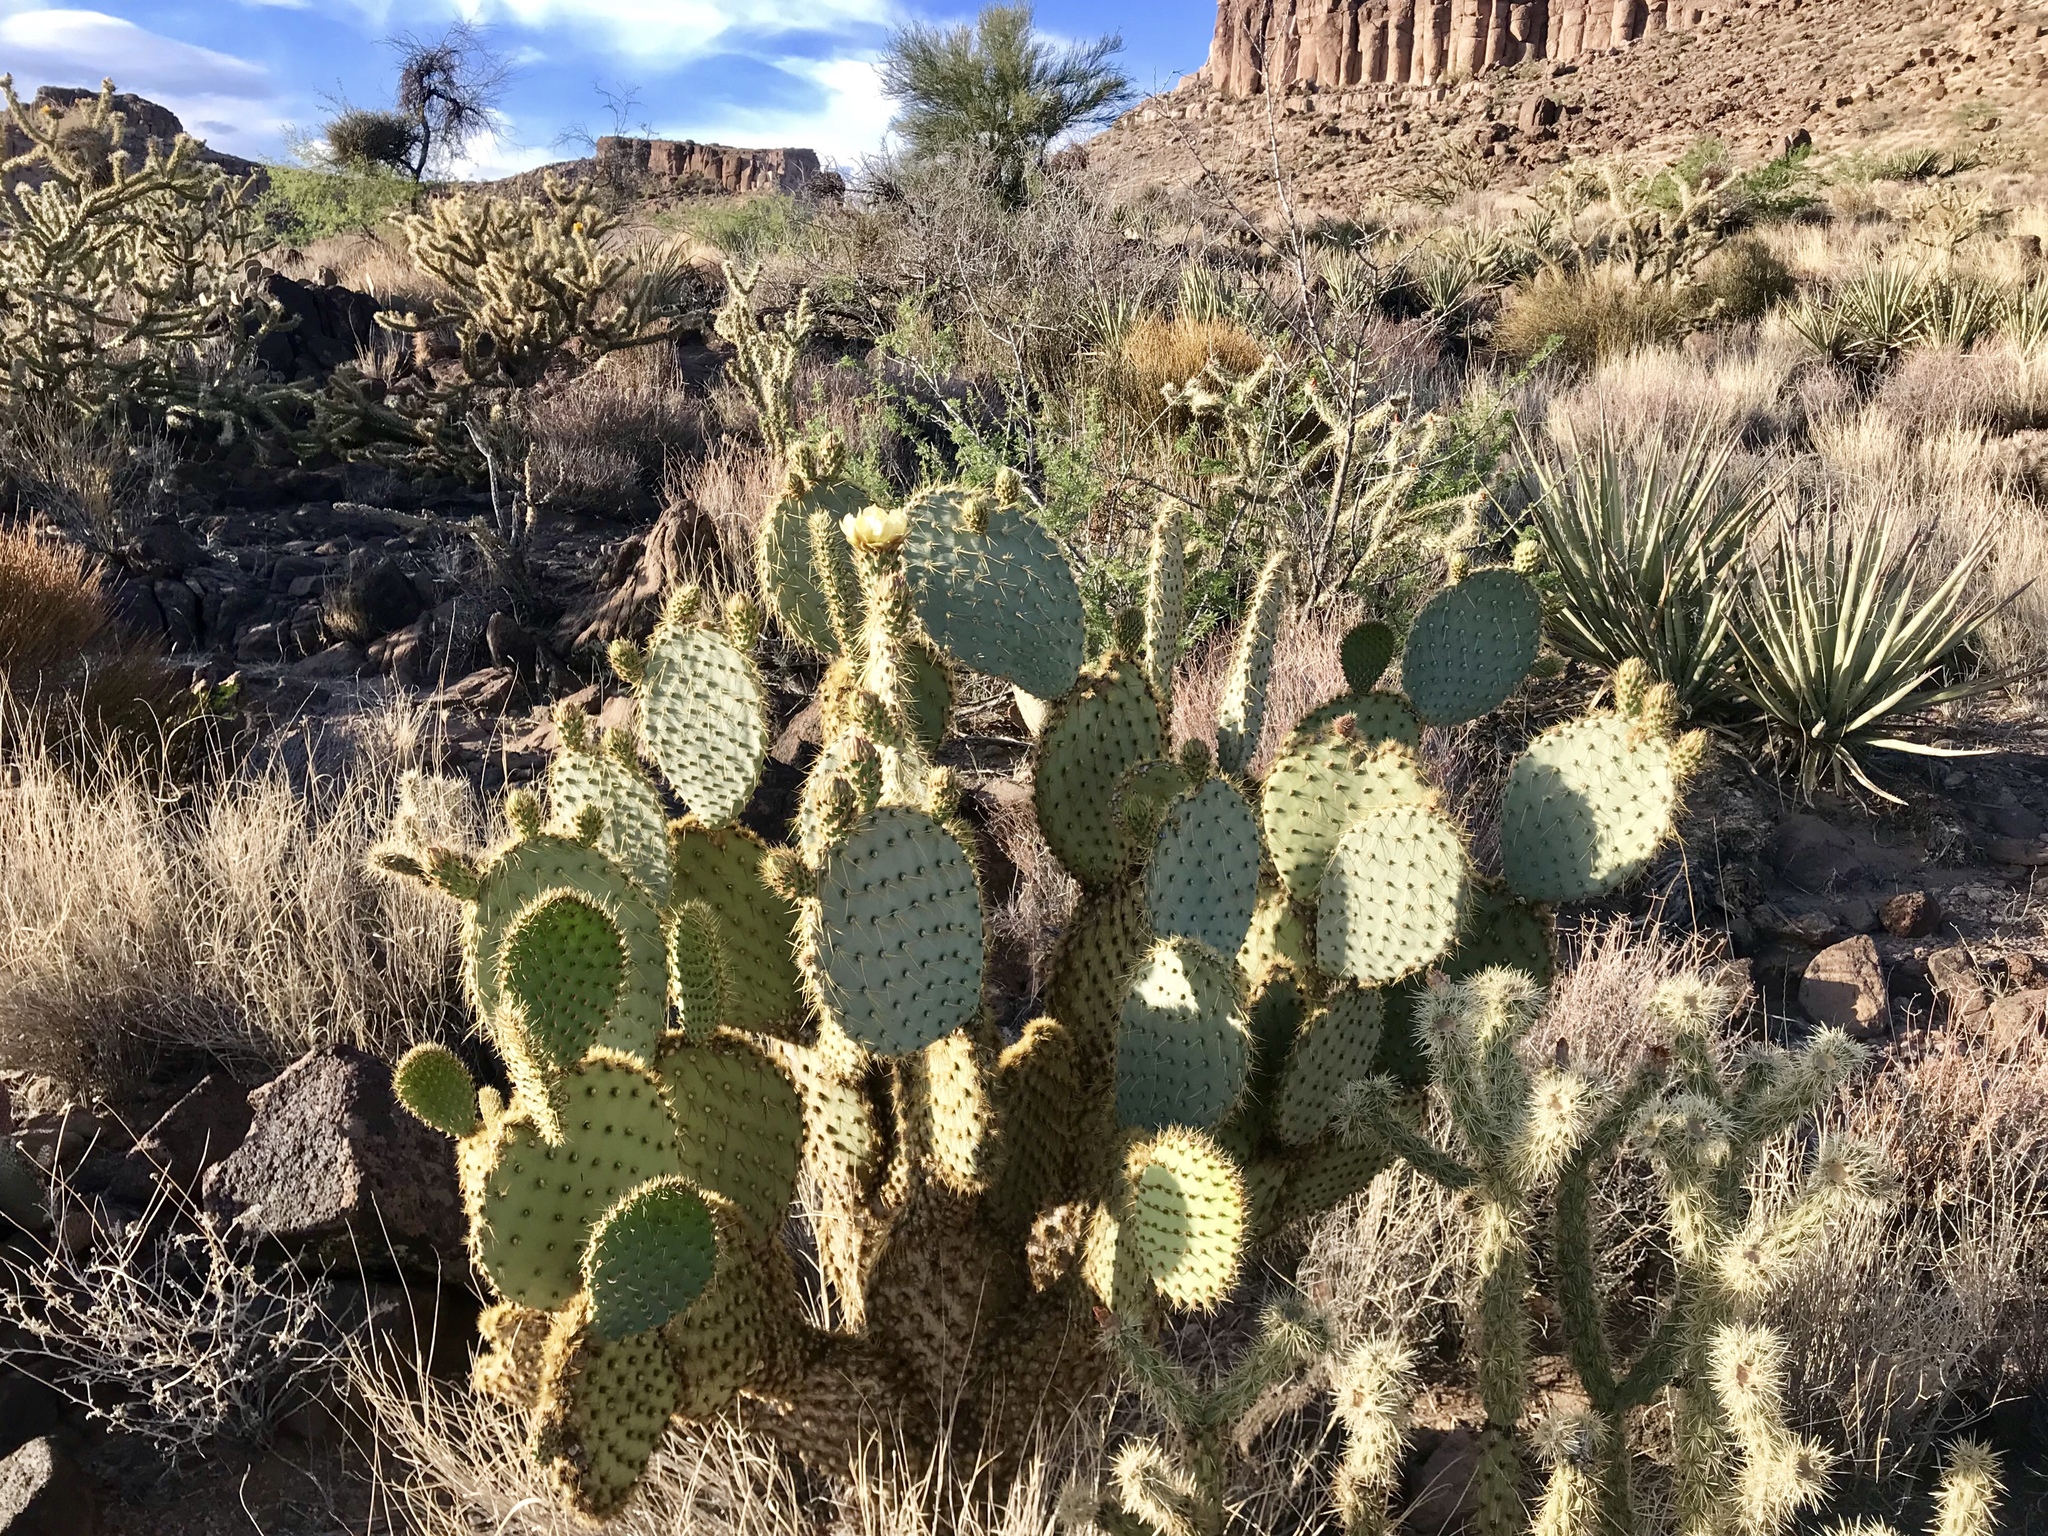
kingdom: Plantae
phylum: Tracheophyta
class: Magnoliopsida
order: Caryophyllales
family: Cactaceae
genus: Opuntia
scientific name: Opuntia chlorotica
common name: Dollar-joint prickly-pear
